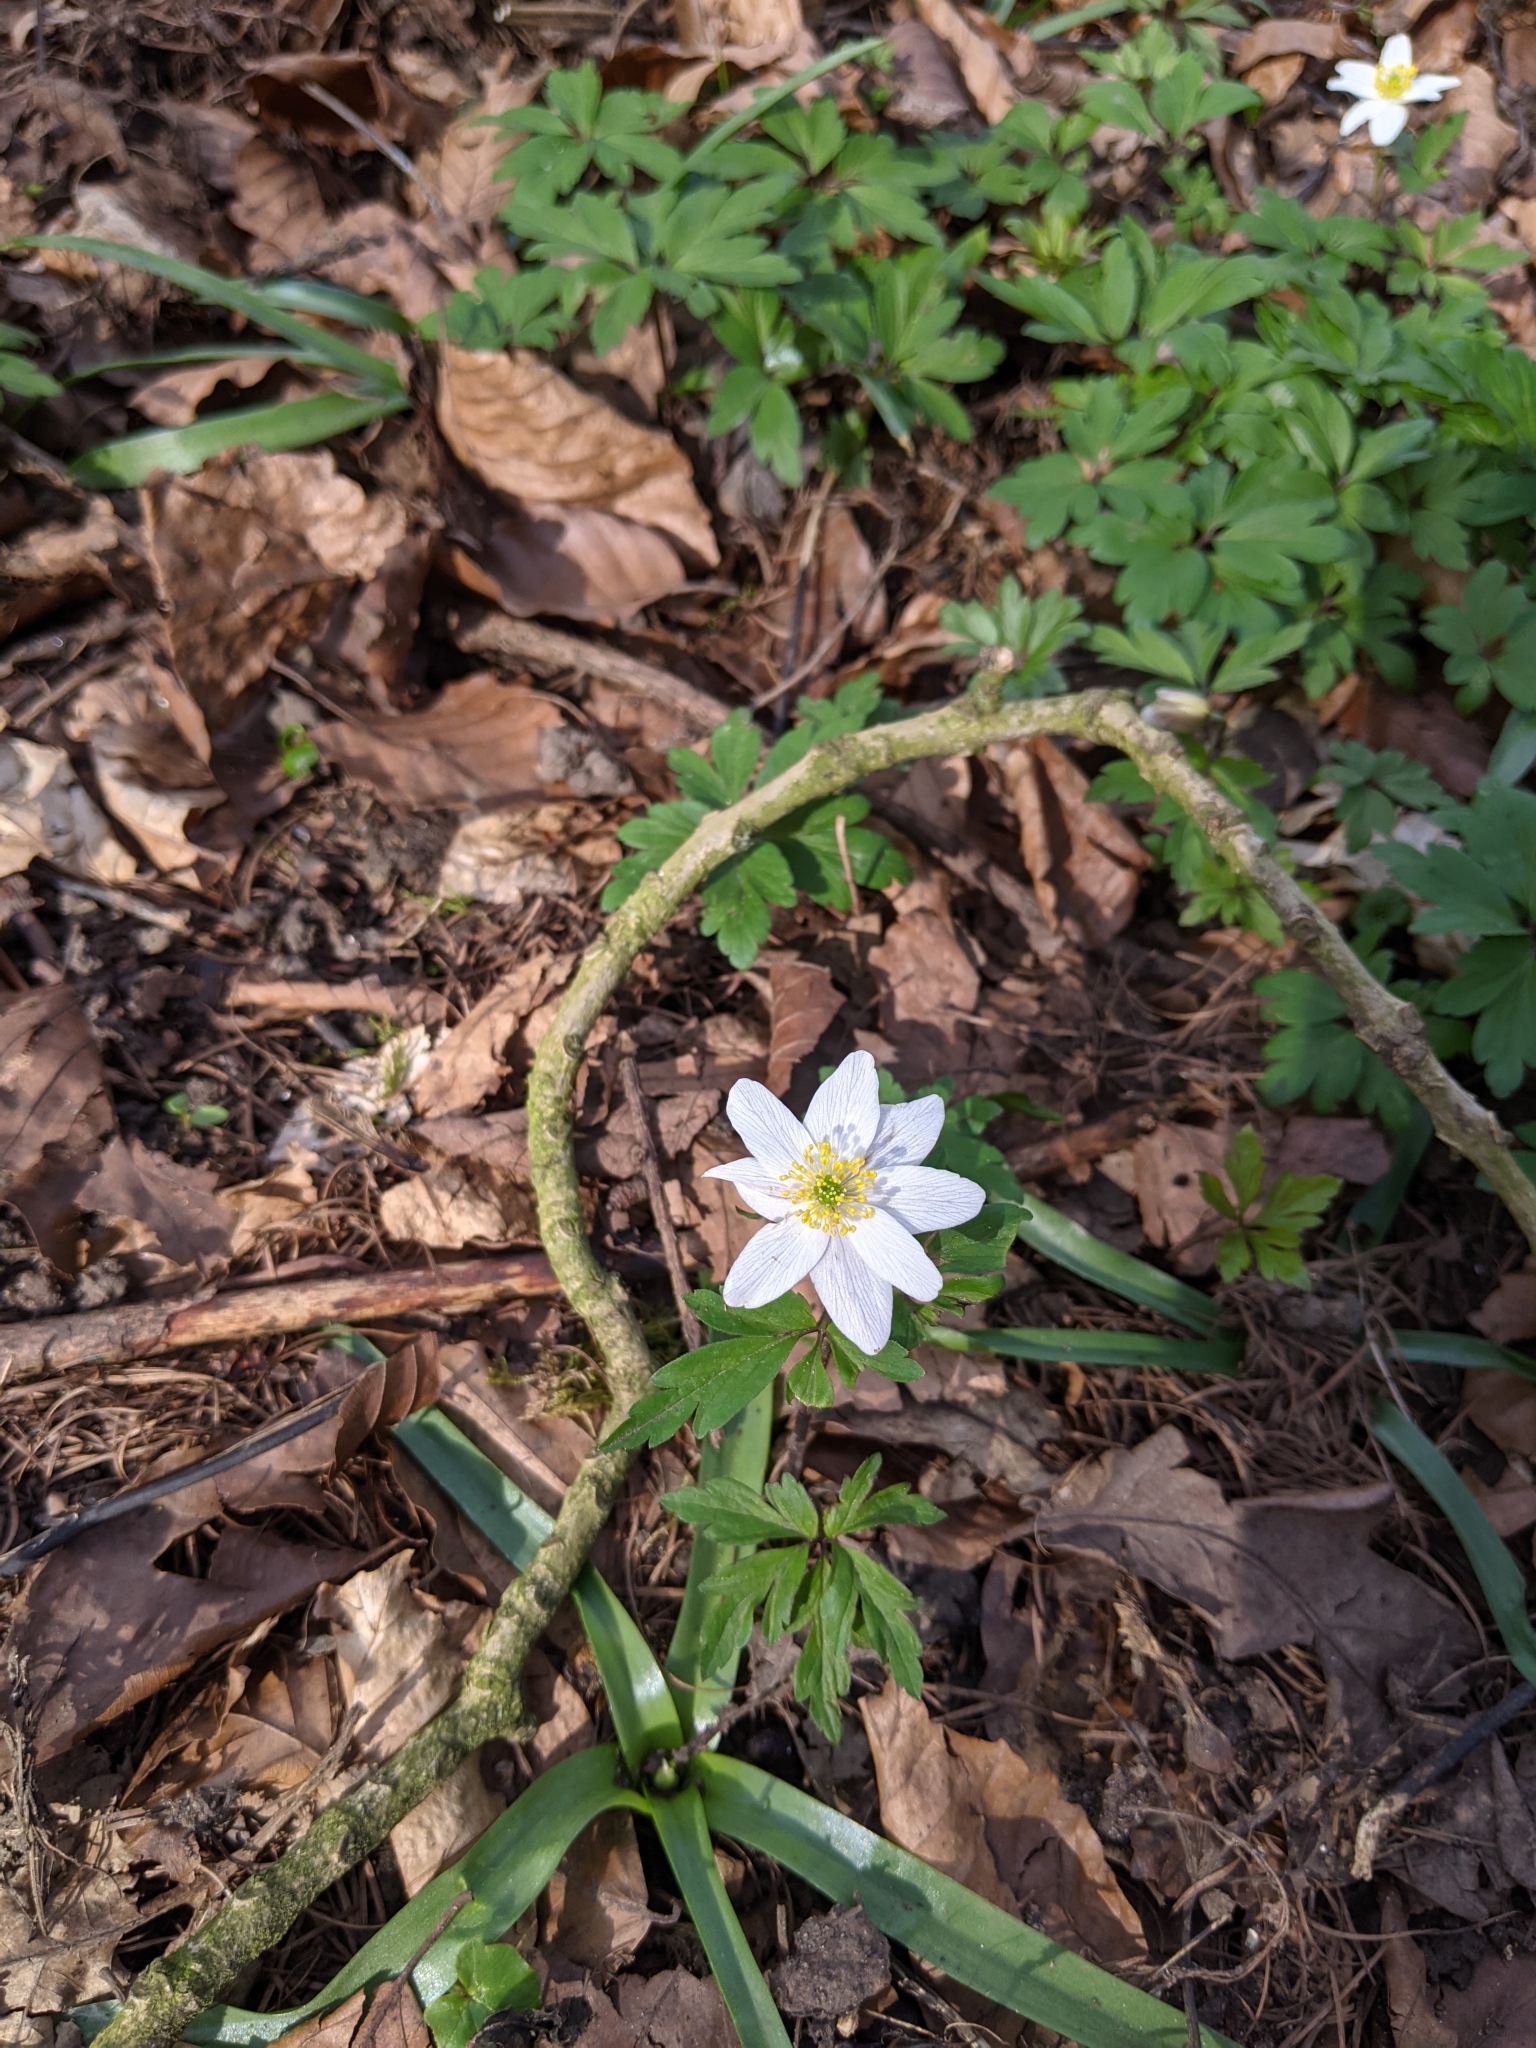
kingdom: Plantae
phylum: Tracheophyta
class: Magnoliopsida
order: Ranunculales
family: Ranunculaceae
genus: Anemone
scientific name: Anemone nemorosa
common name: Wood anemone
